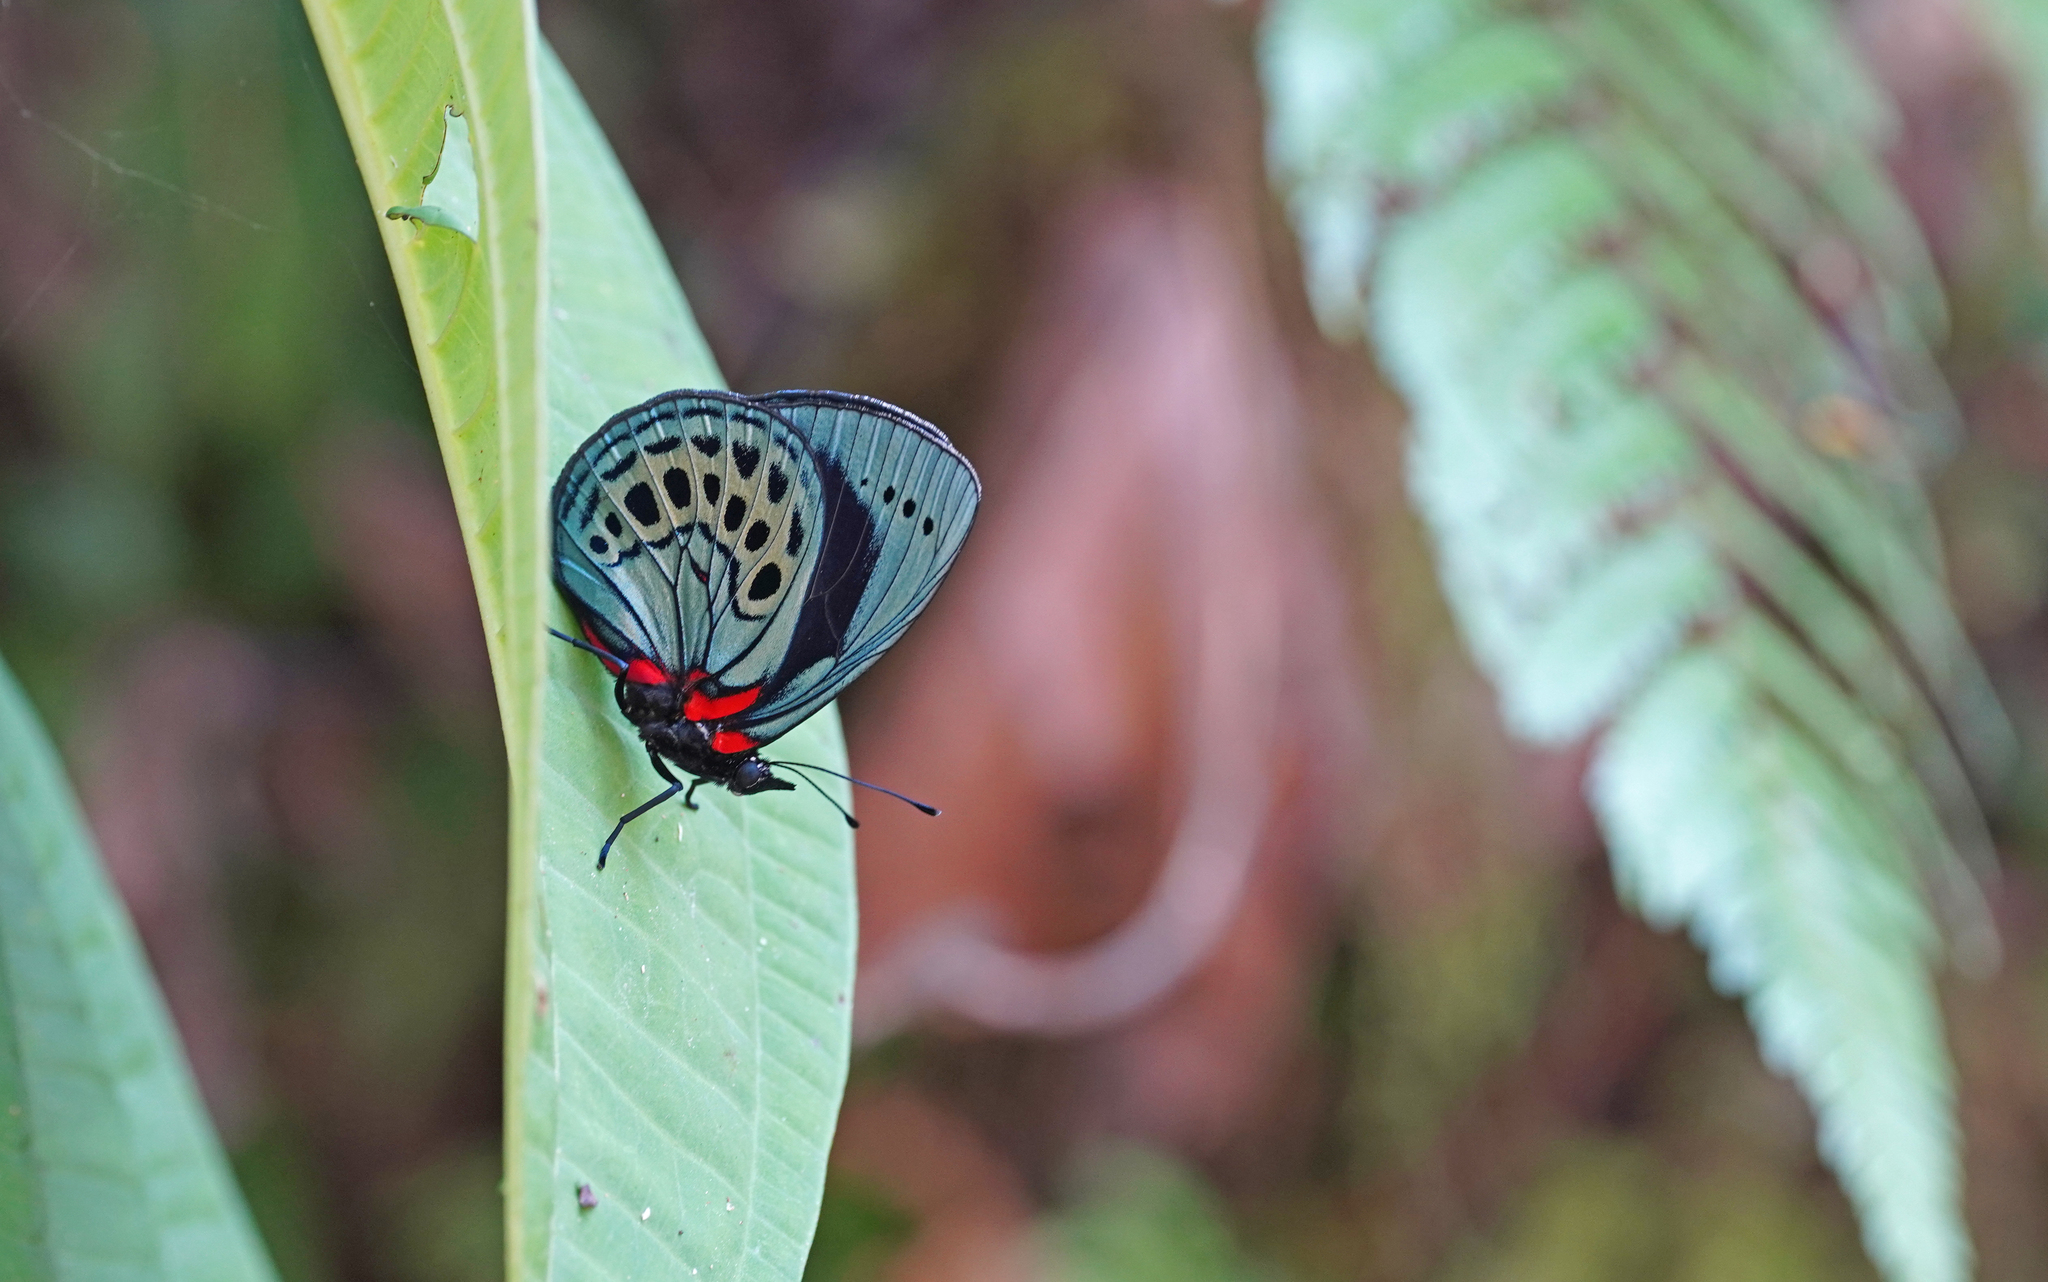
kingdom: Animalia
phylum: Arthropoda
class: Insecta
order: Lepidoptera
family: Nymphalidae
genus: Asterope
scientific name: Asterope leprieuri
